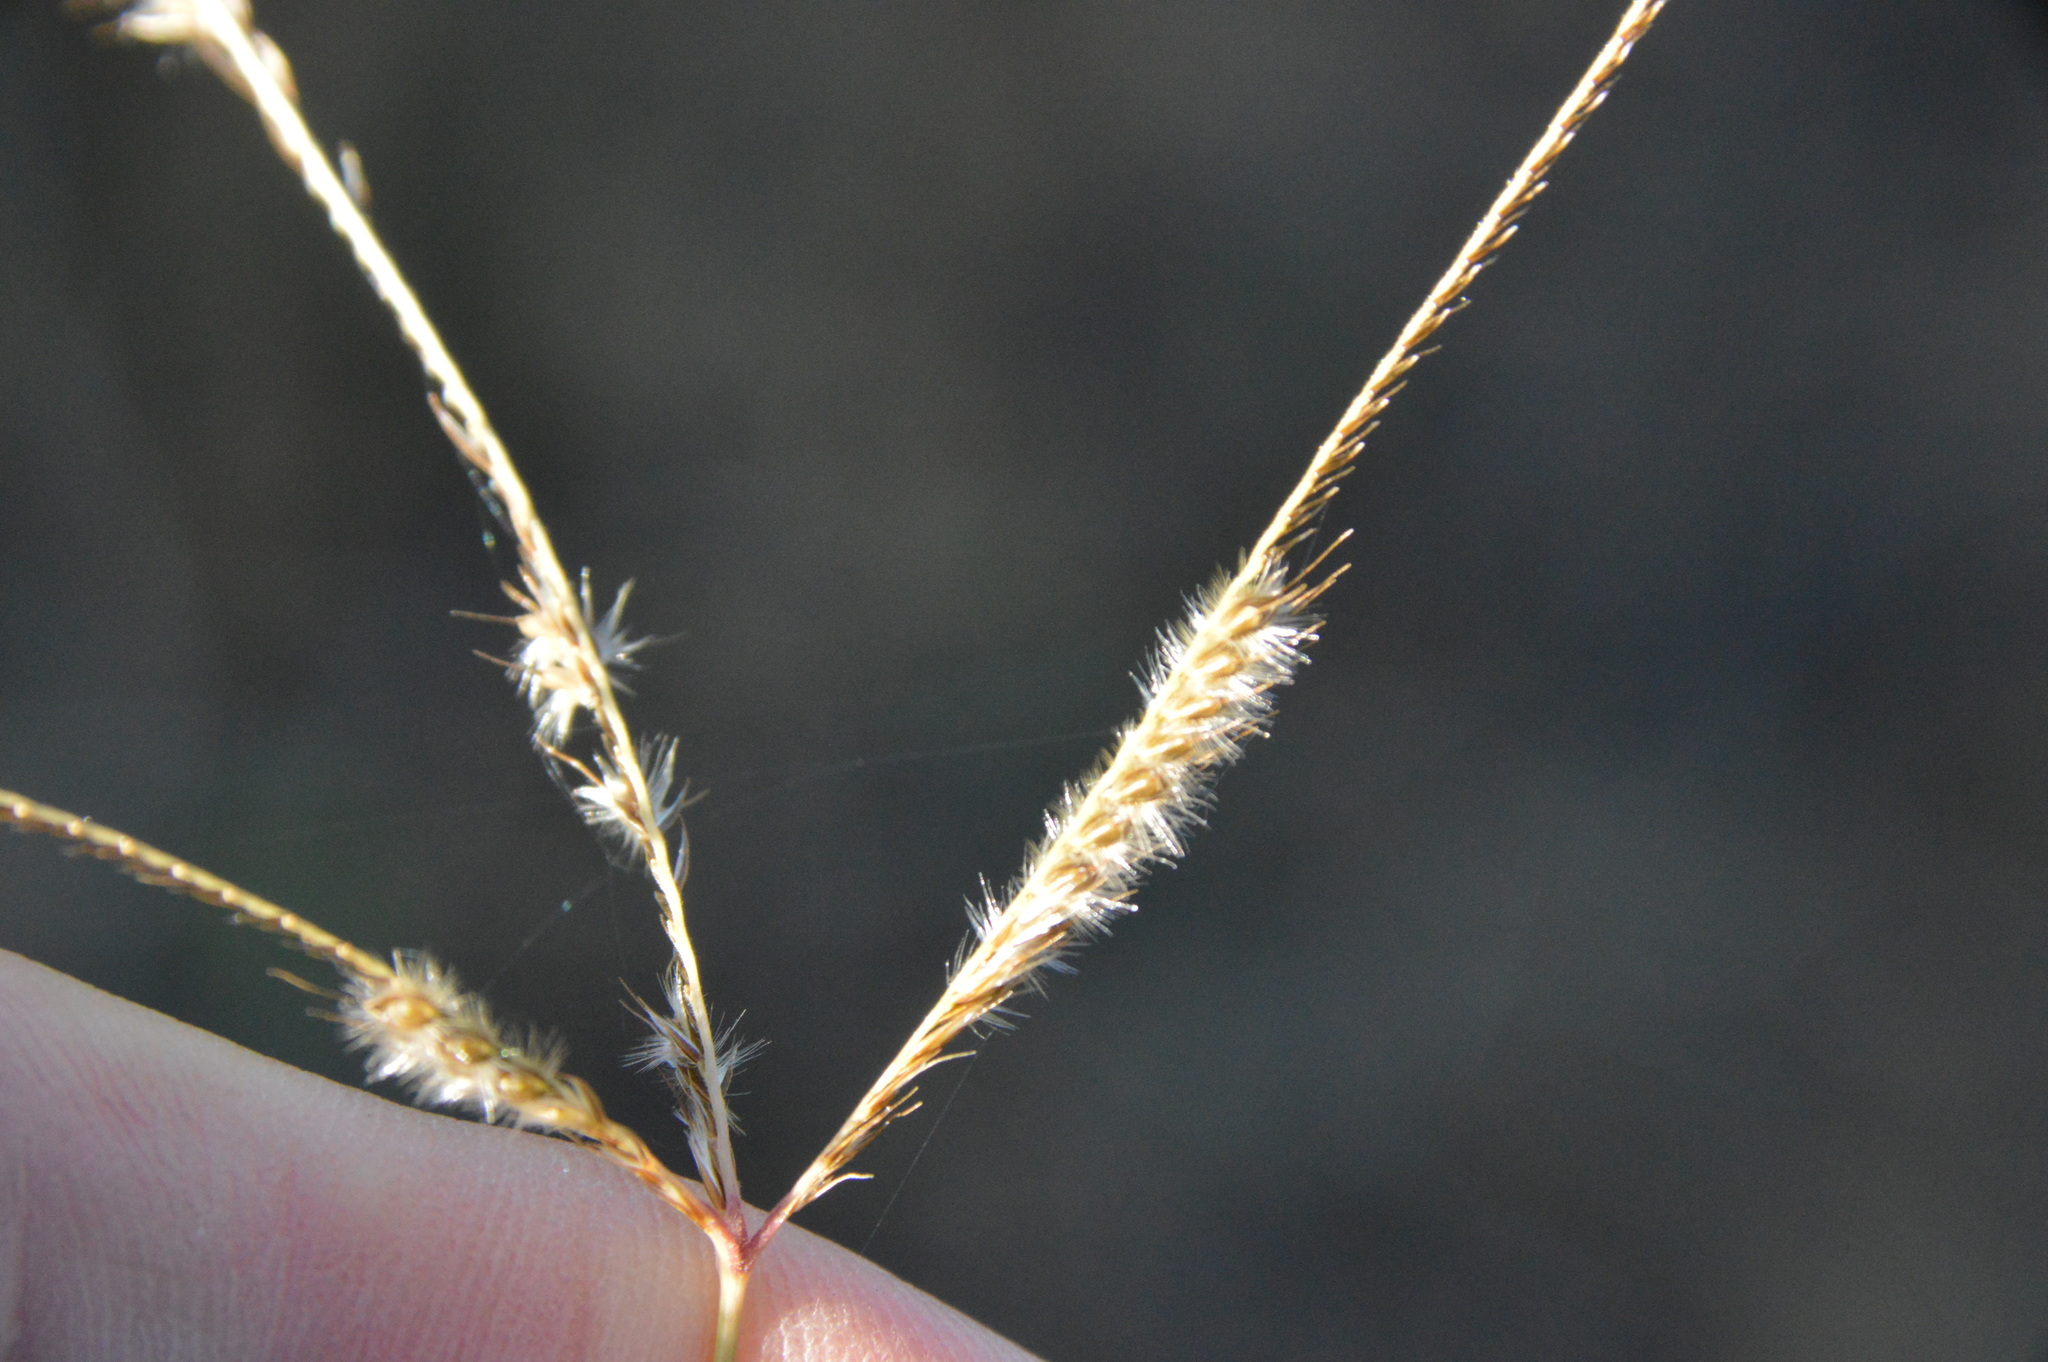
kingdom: Plantae
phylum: Tracheophyta
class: Liliopsida
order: Poales
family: Poaceae
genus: Stapfochloa
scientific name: Stapfochloa canterae
